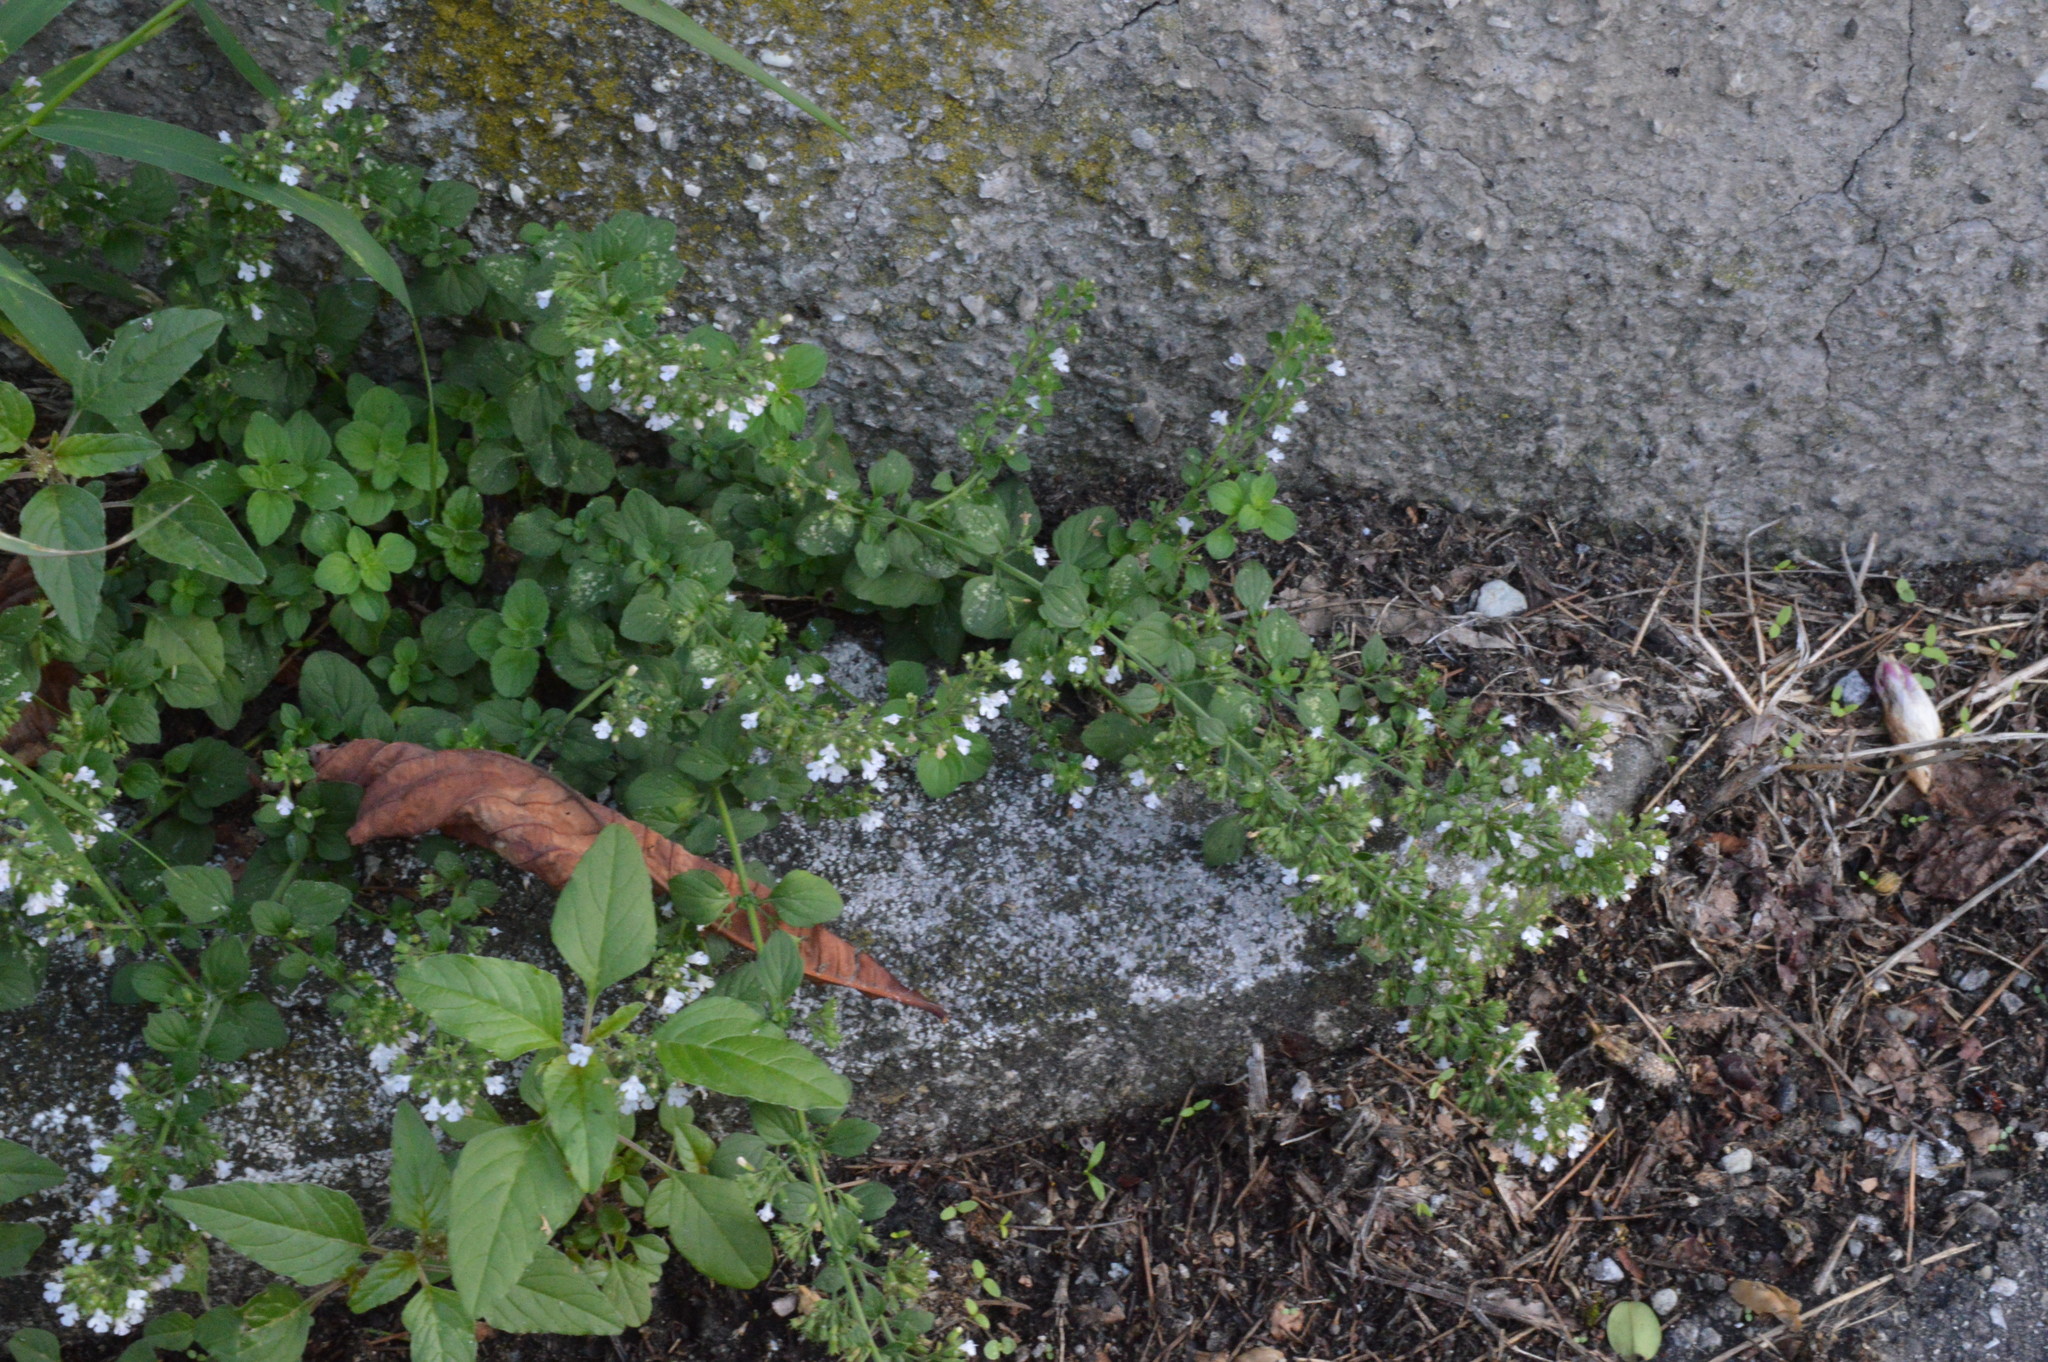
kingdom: Plantae
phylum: Tracheophyta
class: Magnoliopsida
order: Lamiales
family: Lamiaceae
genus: Clinopodium
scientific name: Clinopodium nepeta
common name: Lesser calamint
